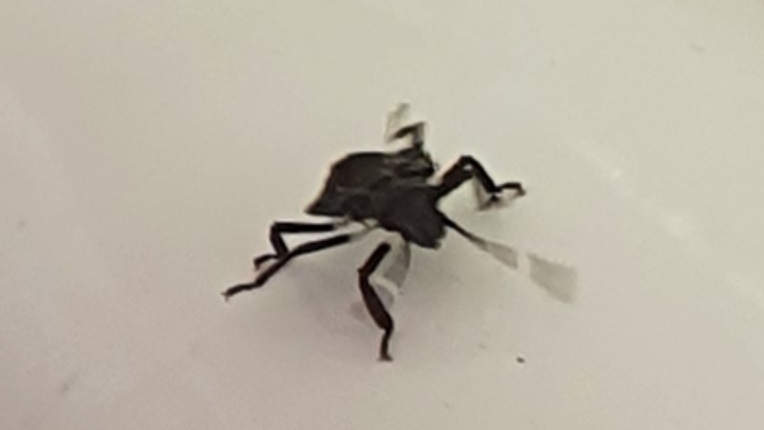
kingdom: Animalia
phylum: Arthropoda
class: Insecta
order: Hemiptera
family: Pentatomidae
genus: Halyomorpha
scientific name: Halyomorpha halys
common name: Brown marmorated stink bug
